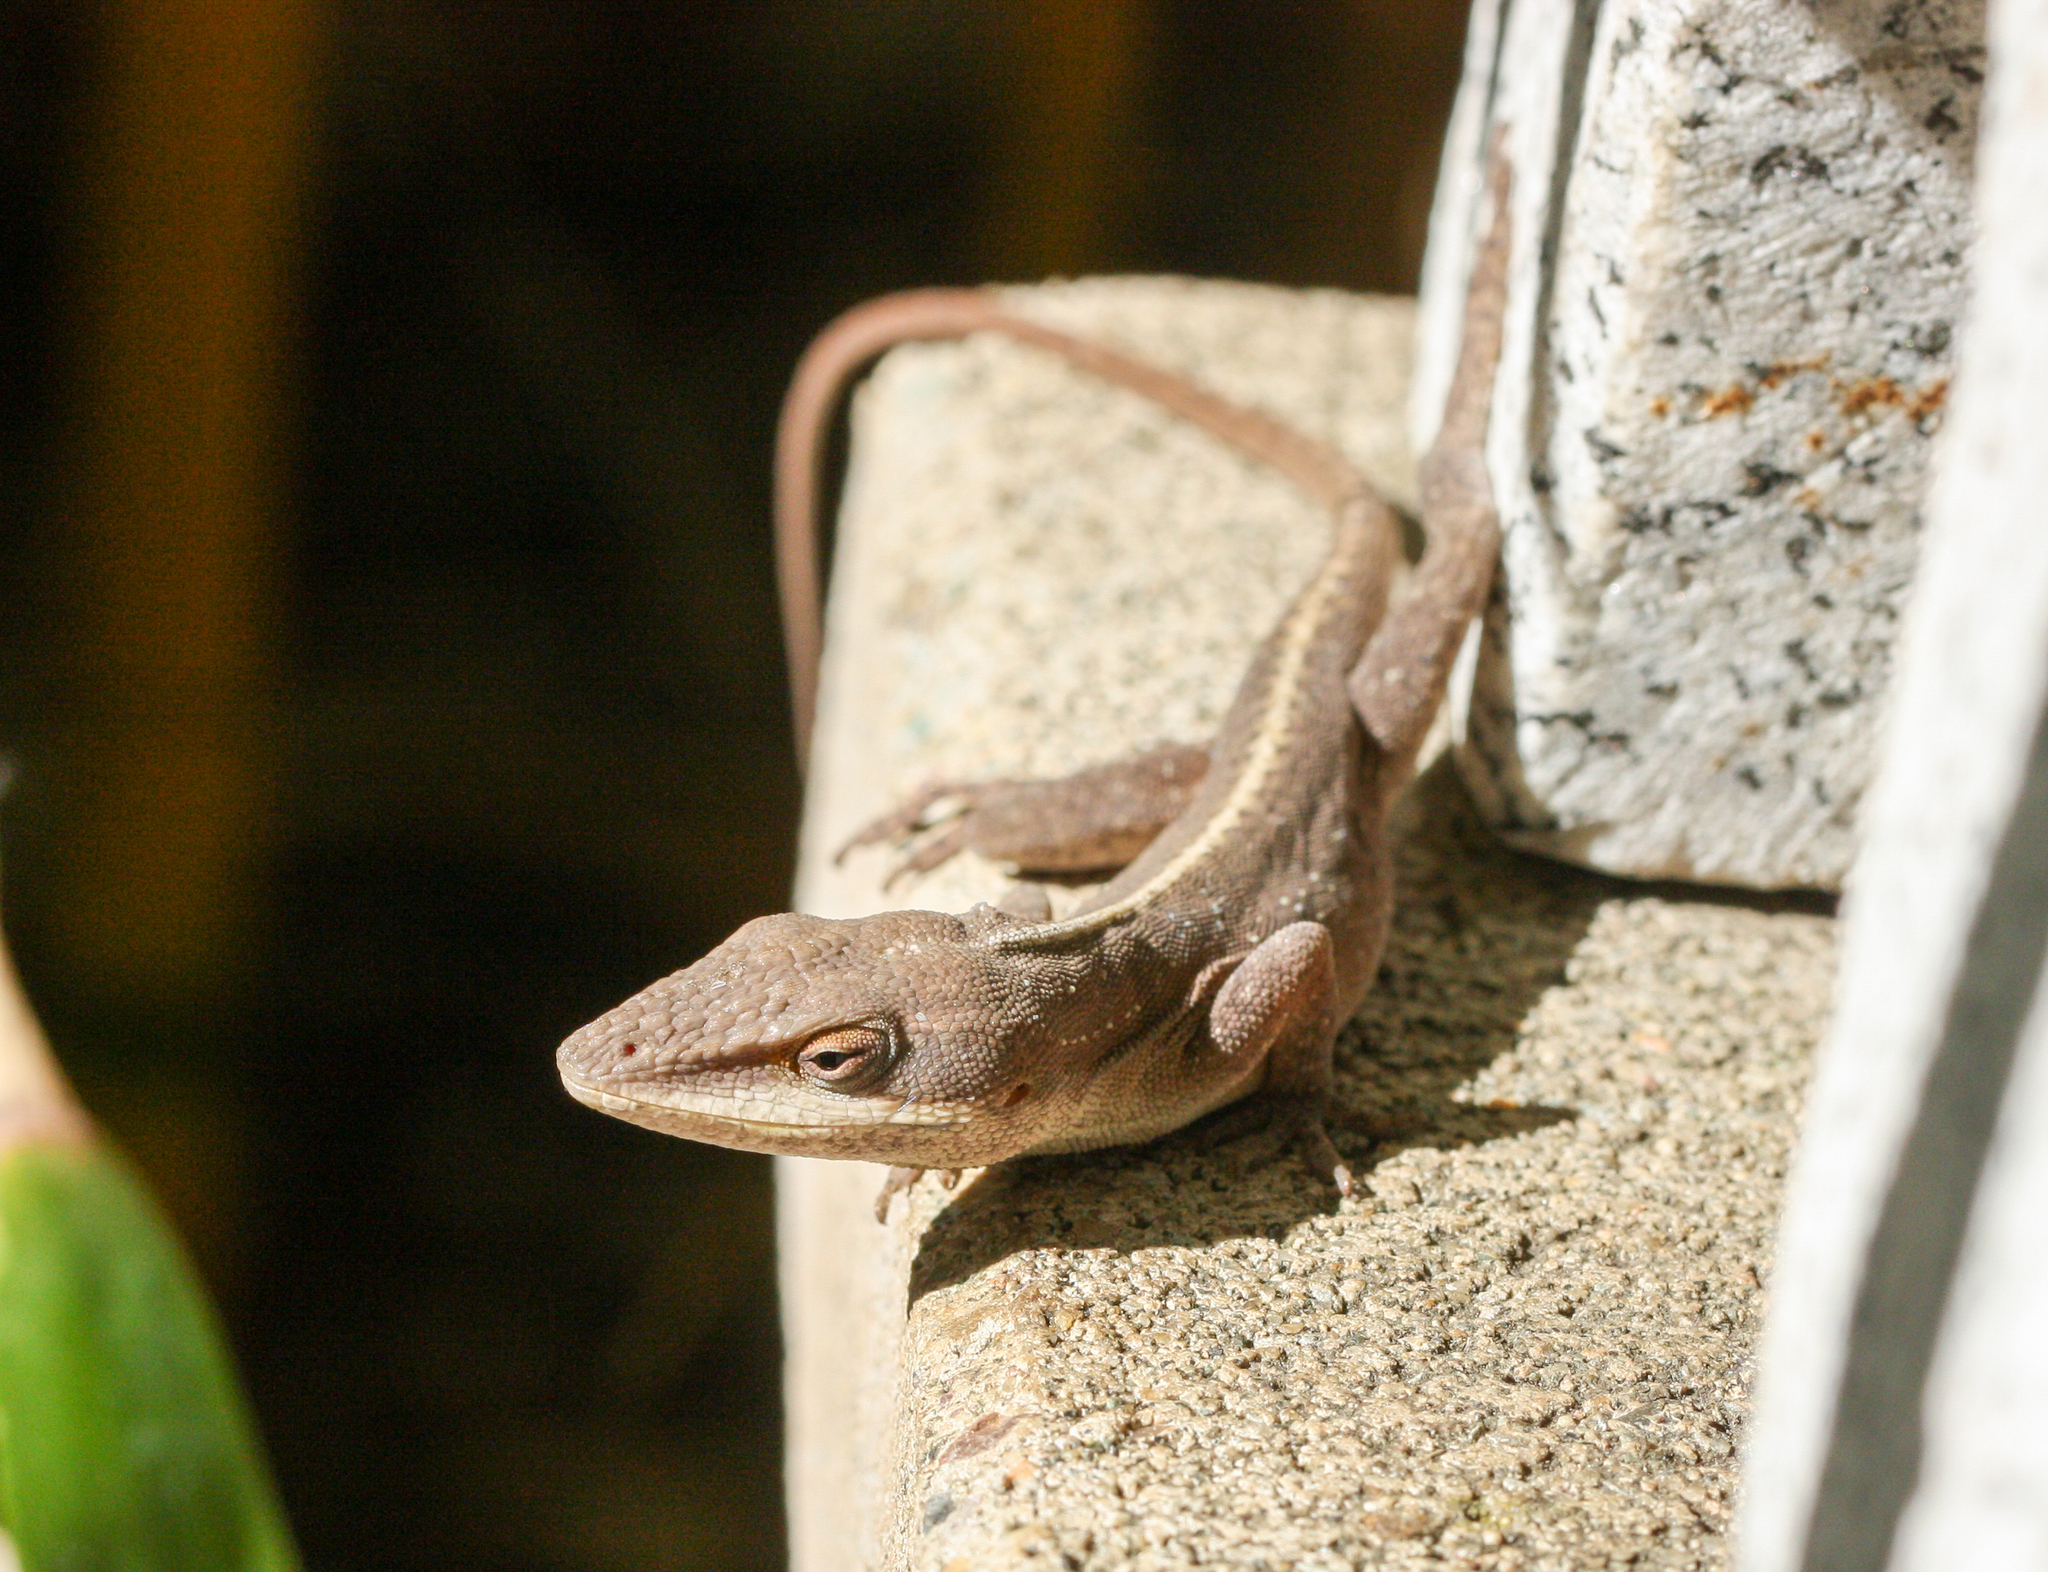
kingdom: Animalia
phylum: Chordata
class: Squamata
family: Dactyloidae
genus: Anolis
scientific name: Anolis carolinensis
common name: Green anole
